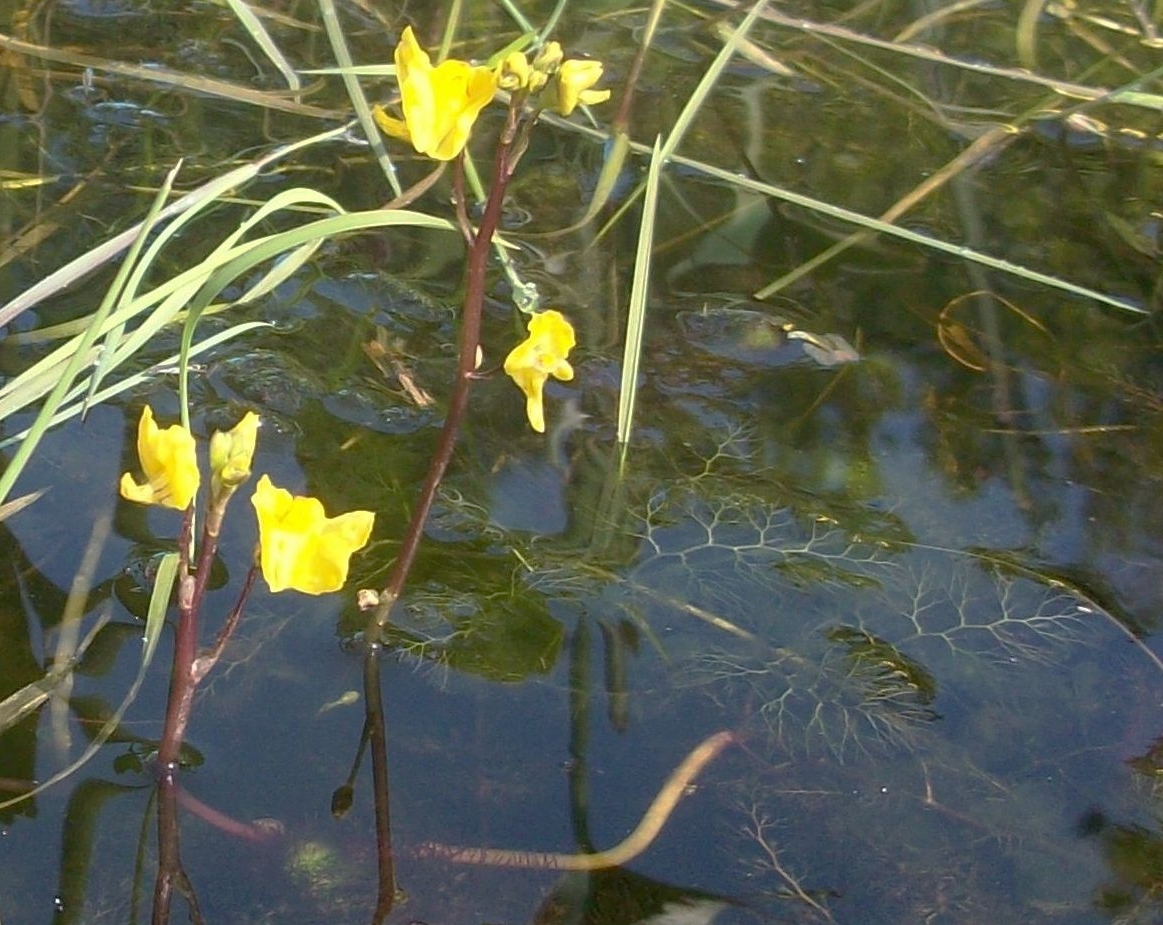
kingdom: Plantae
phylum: Tracheophyta
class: Magnoliopsida
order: Lamiales
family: Lentibulariaceae
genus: Utricularia
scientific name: Utricularia macrorhiza
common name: Common bladderwort
